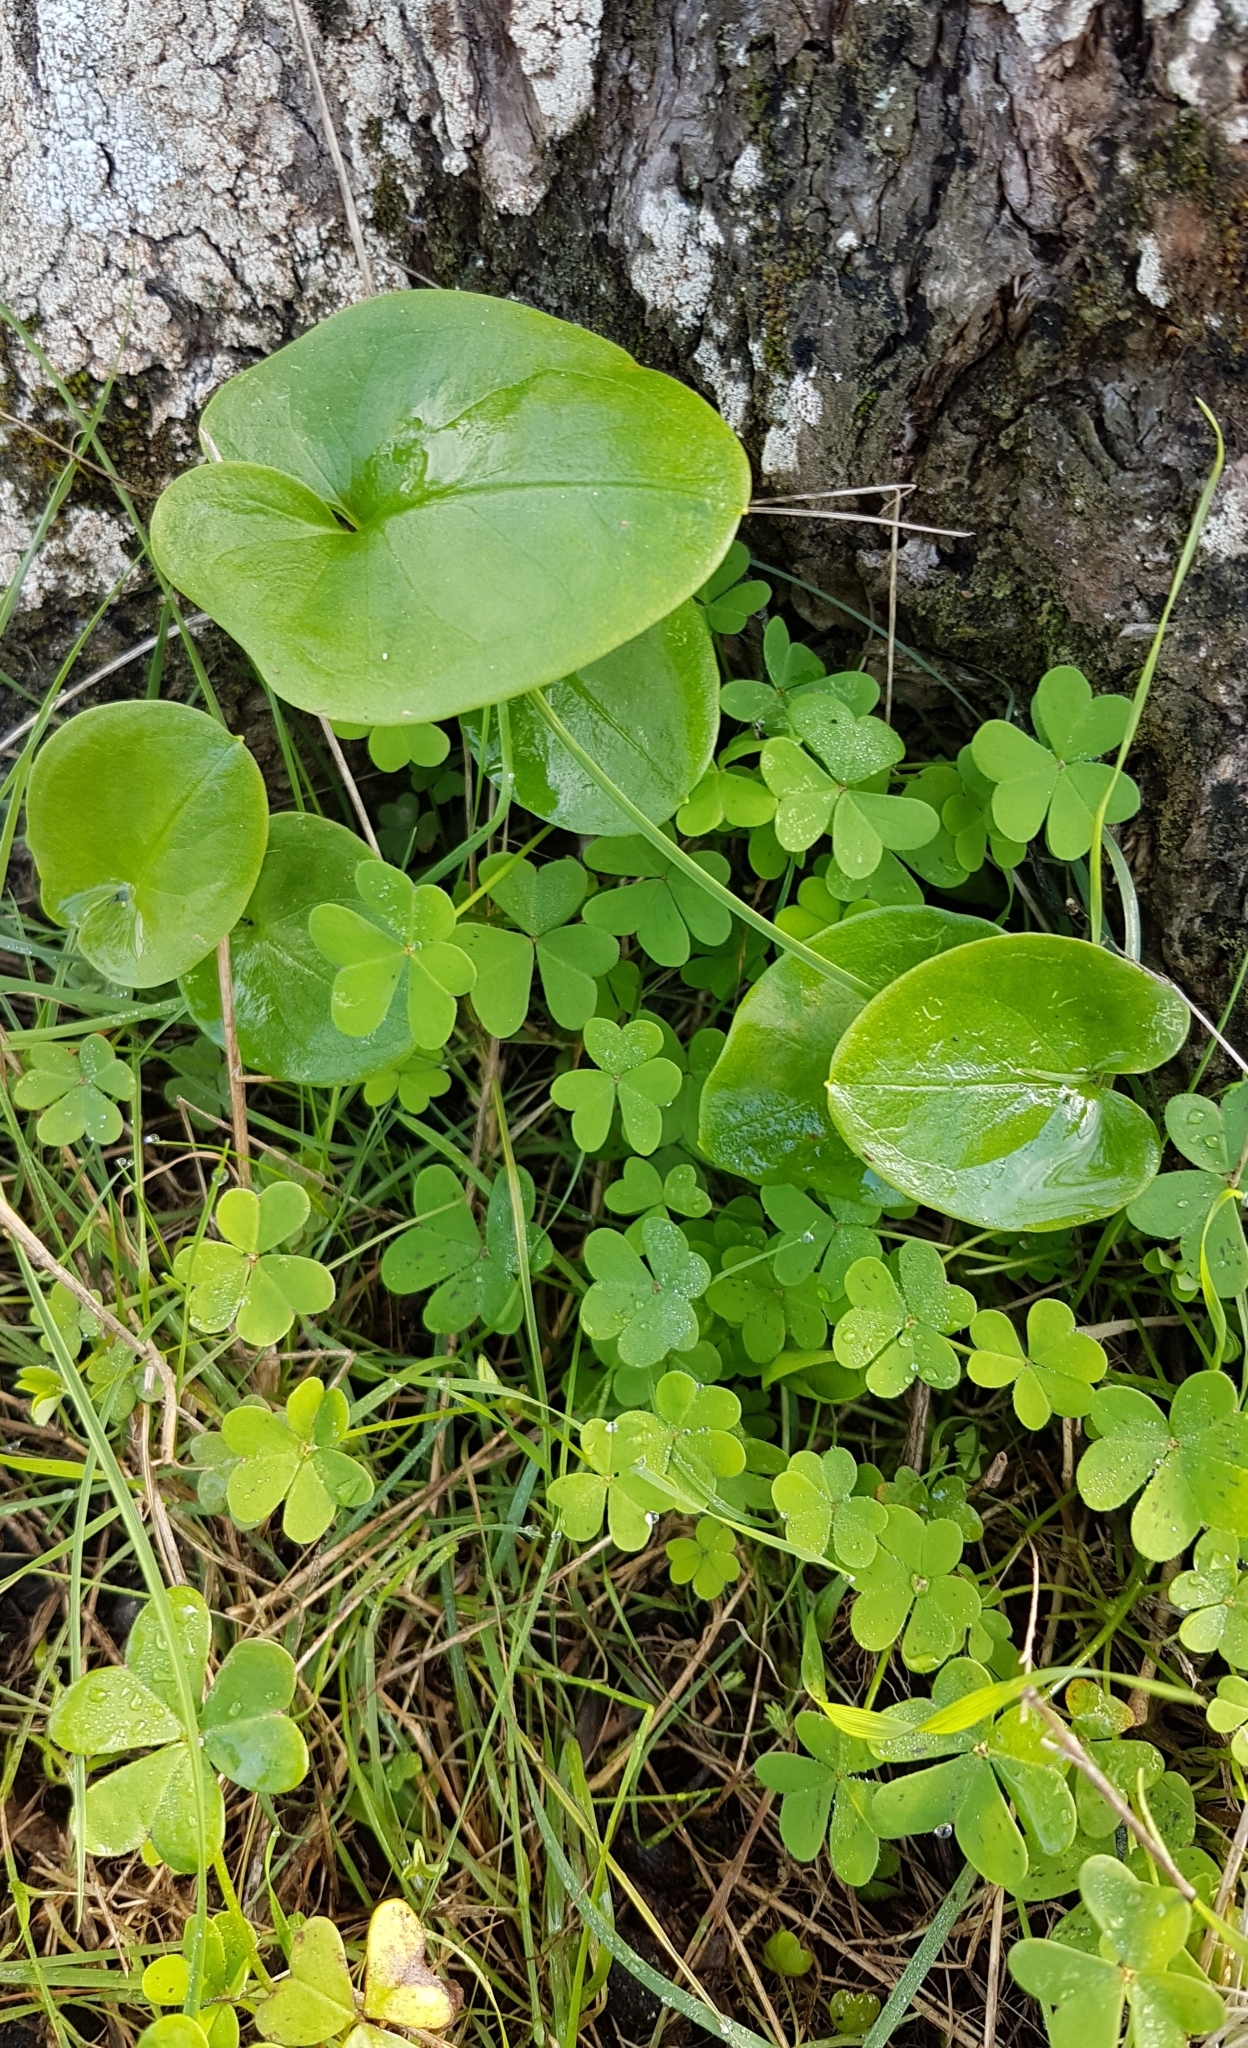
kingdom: Plantae
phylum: Tracheophyta
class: Magnoliopsida
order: Oxalidales
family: Oxalidaceae
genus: Oxalis
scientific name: Oxalis pes-caprae
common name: Bermuda-buttercup
